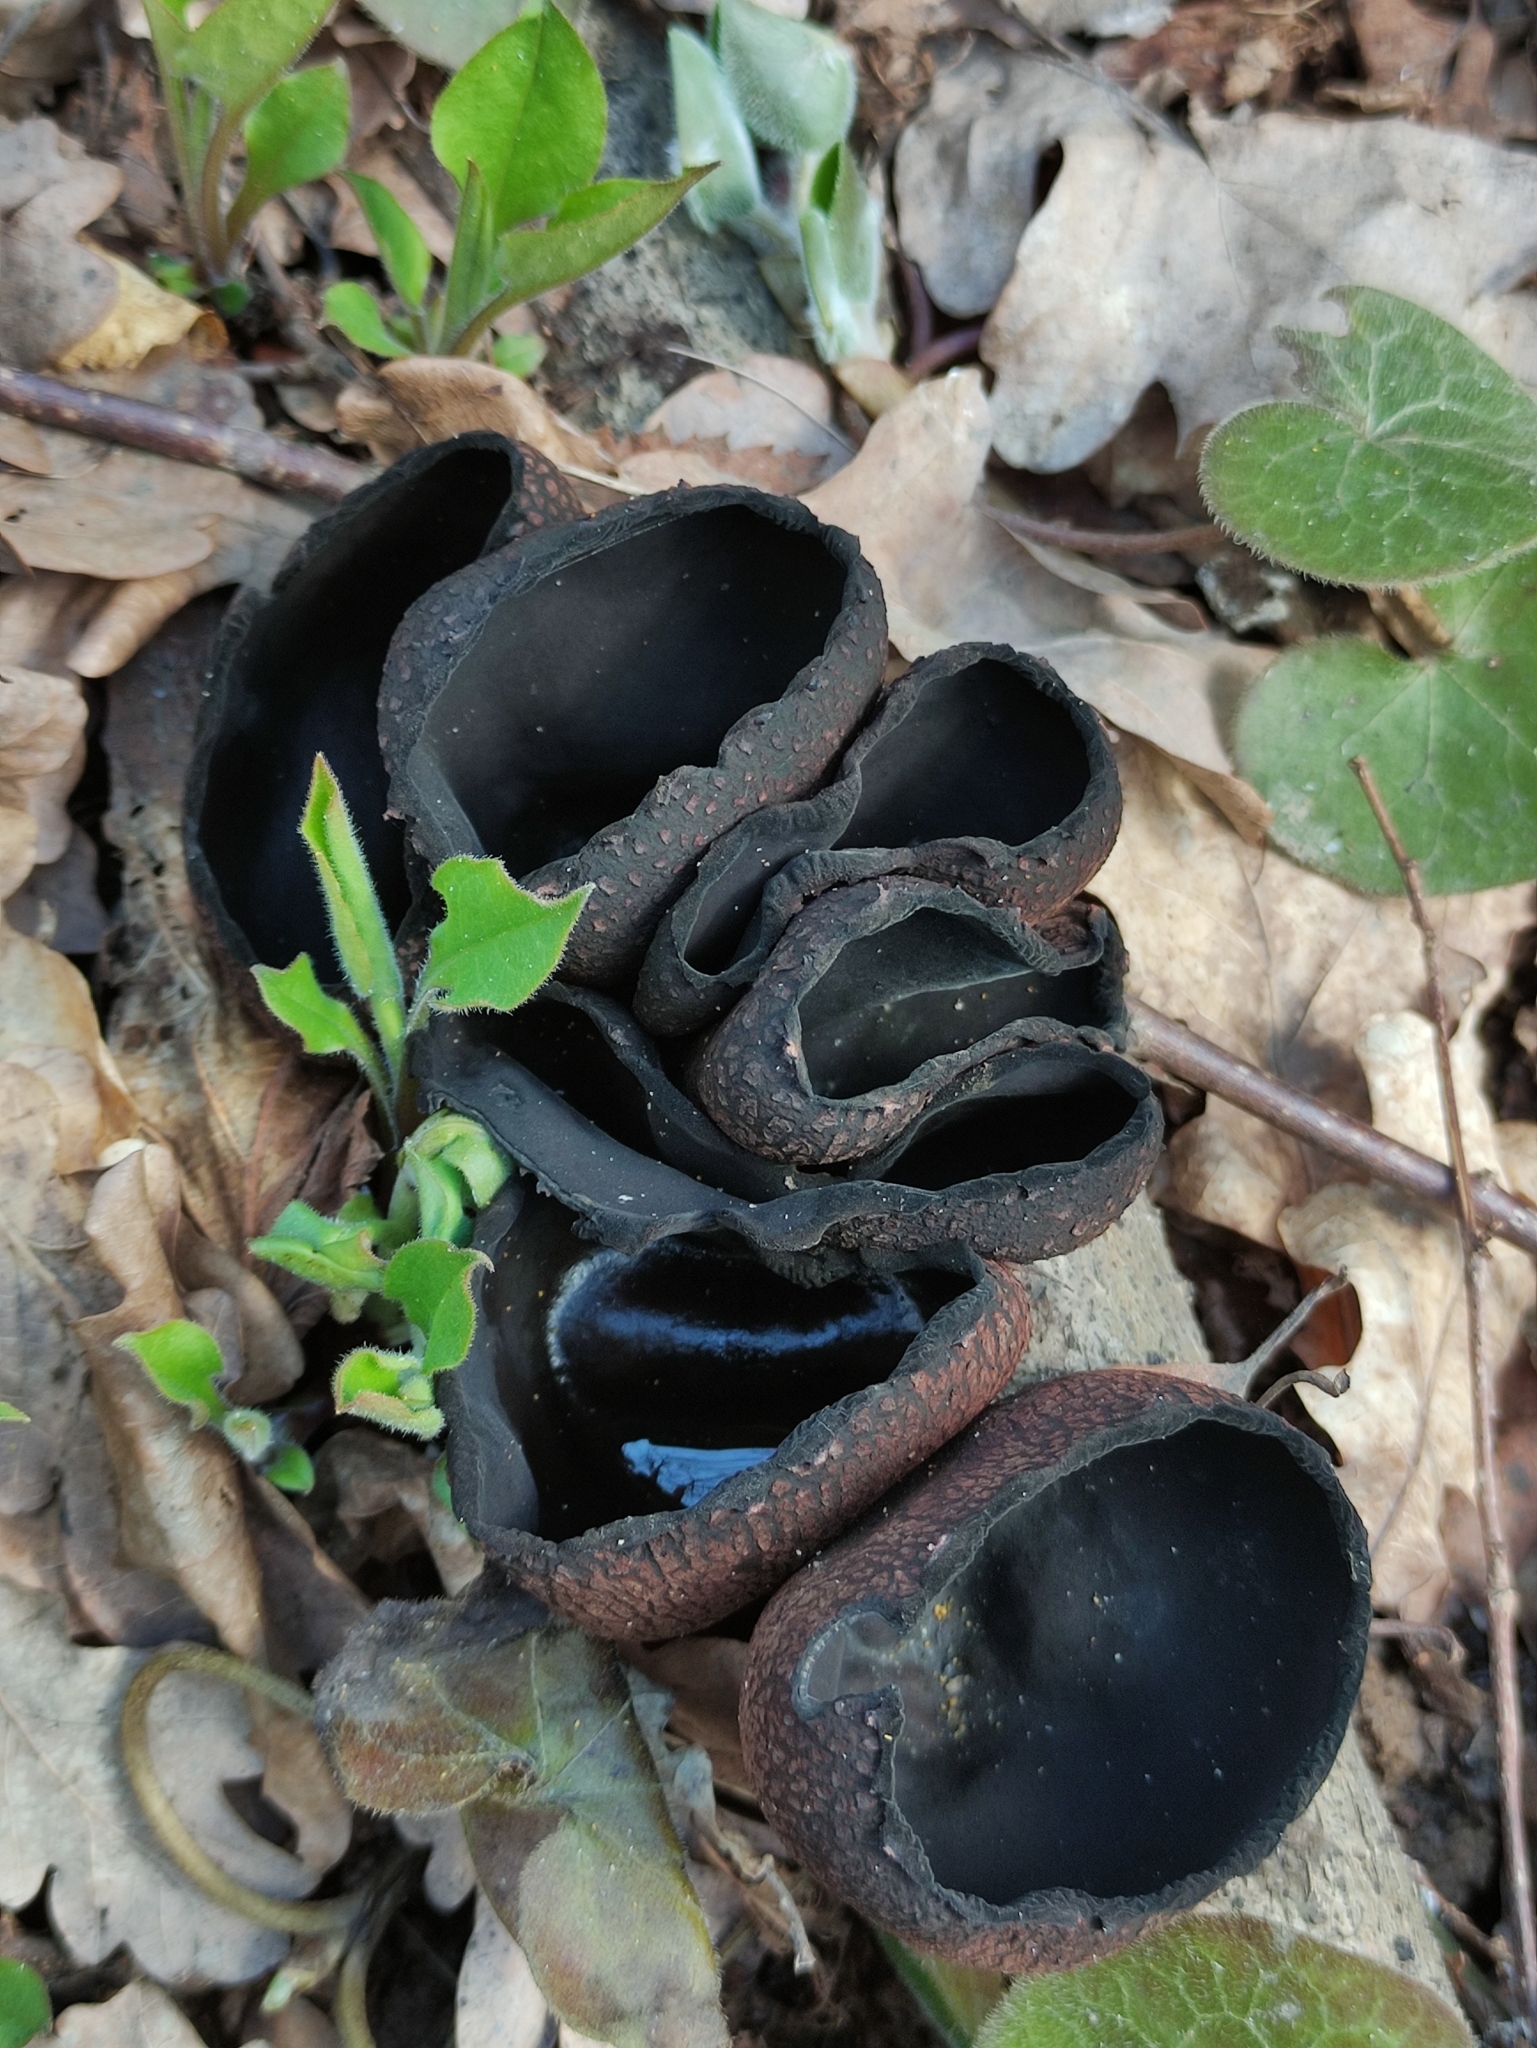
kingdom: Fungi
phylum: Ascomycota
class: Pezizomycetes
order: Pezizales
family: Sarcosomataceae
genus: Urnula
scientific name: Urnula craterium
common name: Devil's urn
